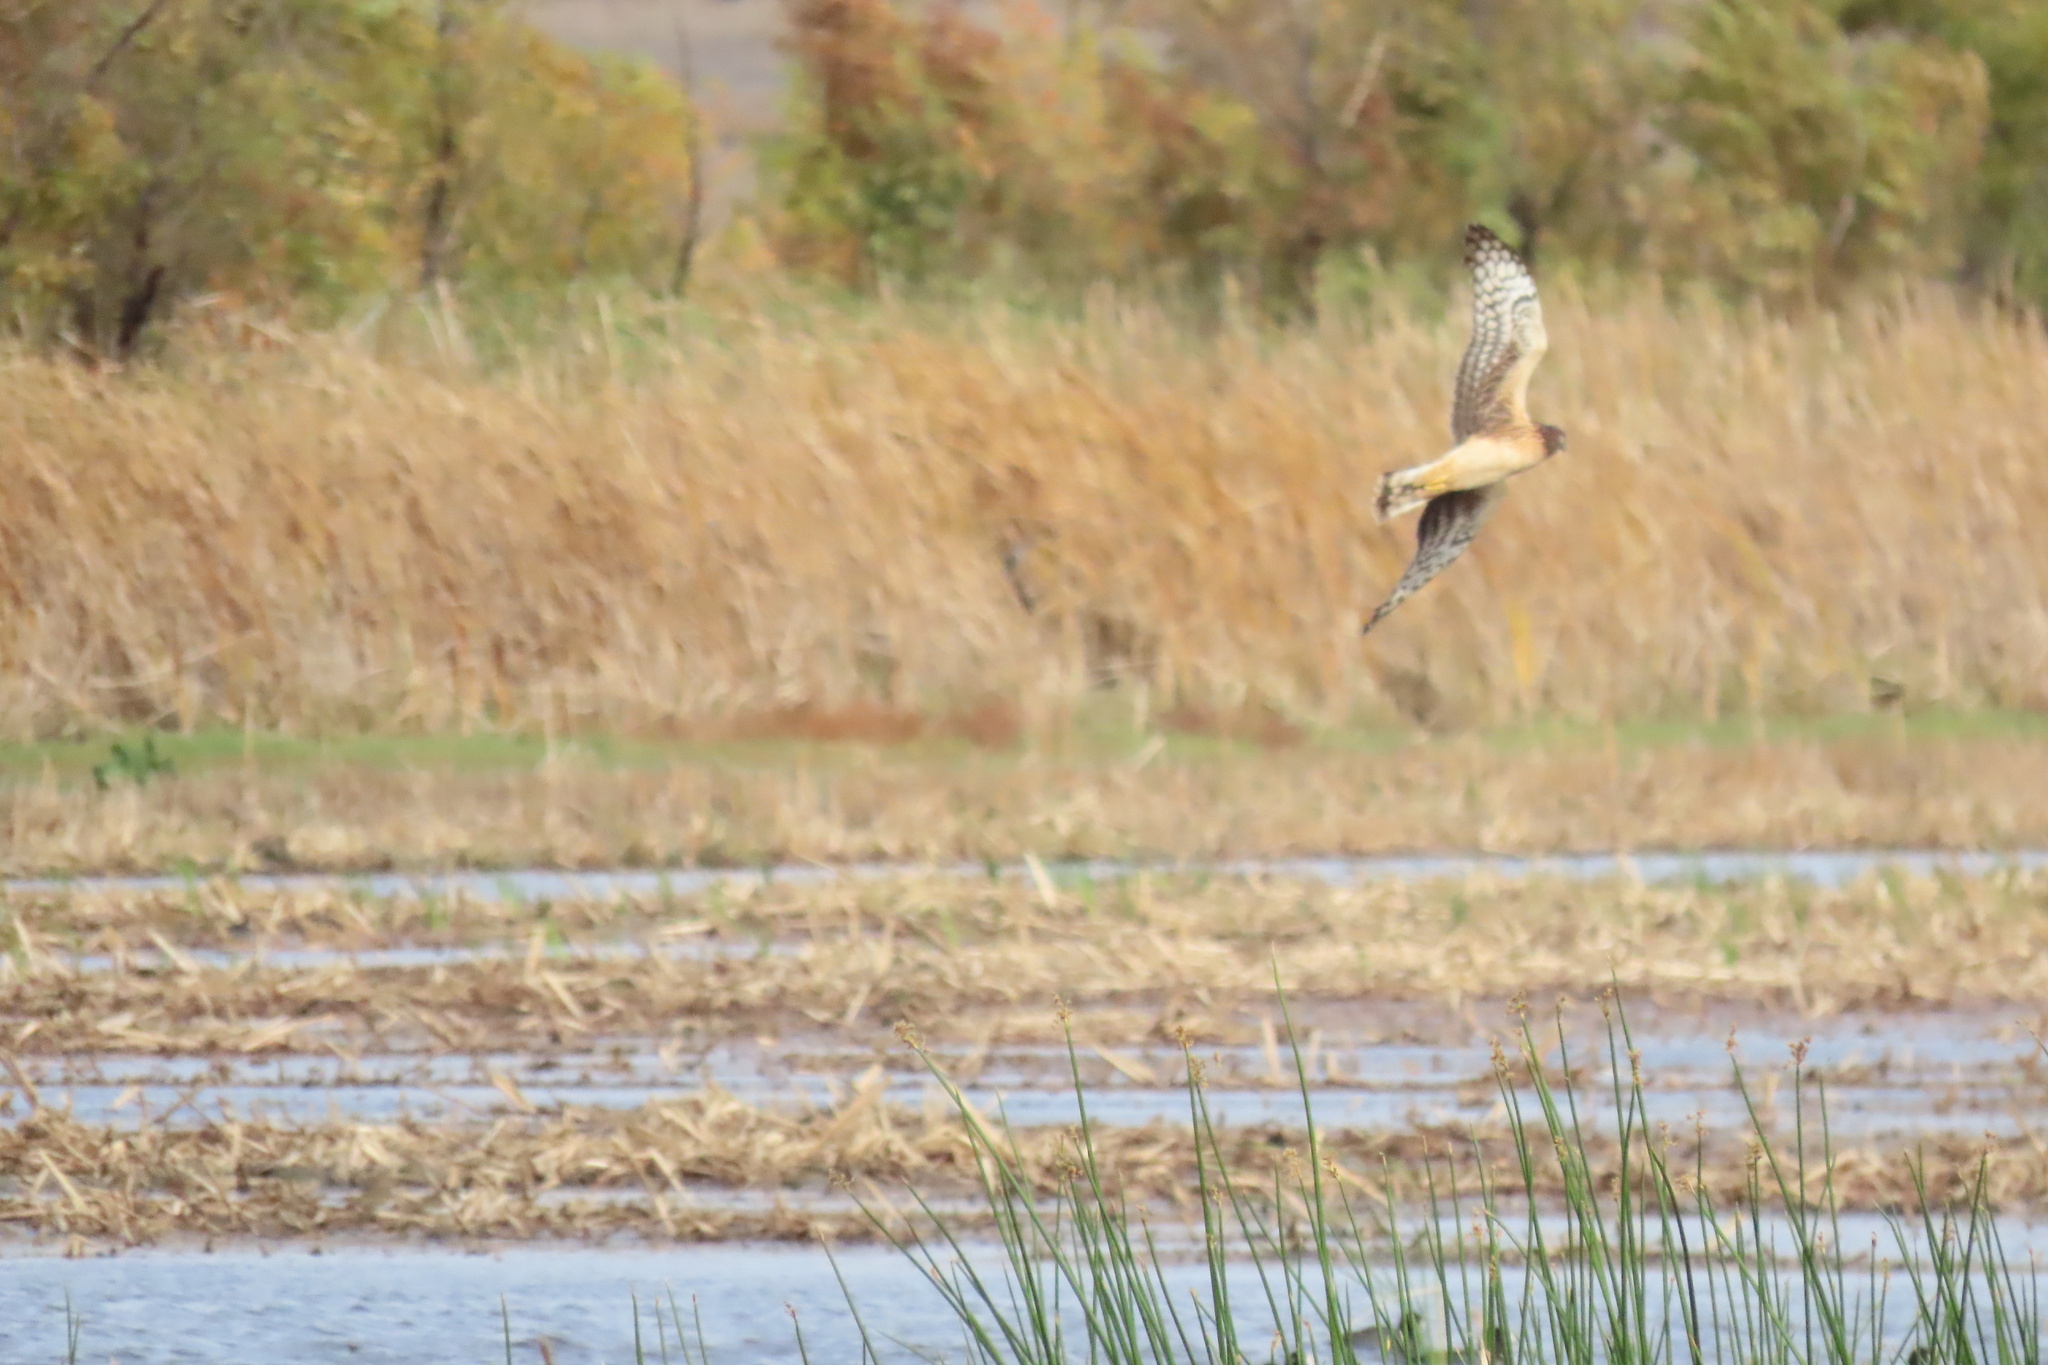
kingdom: Animalia
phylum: Chordata
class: Aves
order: Accipitriformes
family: Accipitridae
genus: Circus
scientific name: Circus cyaneus
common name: Hen harrier
